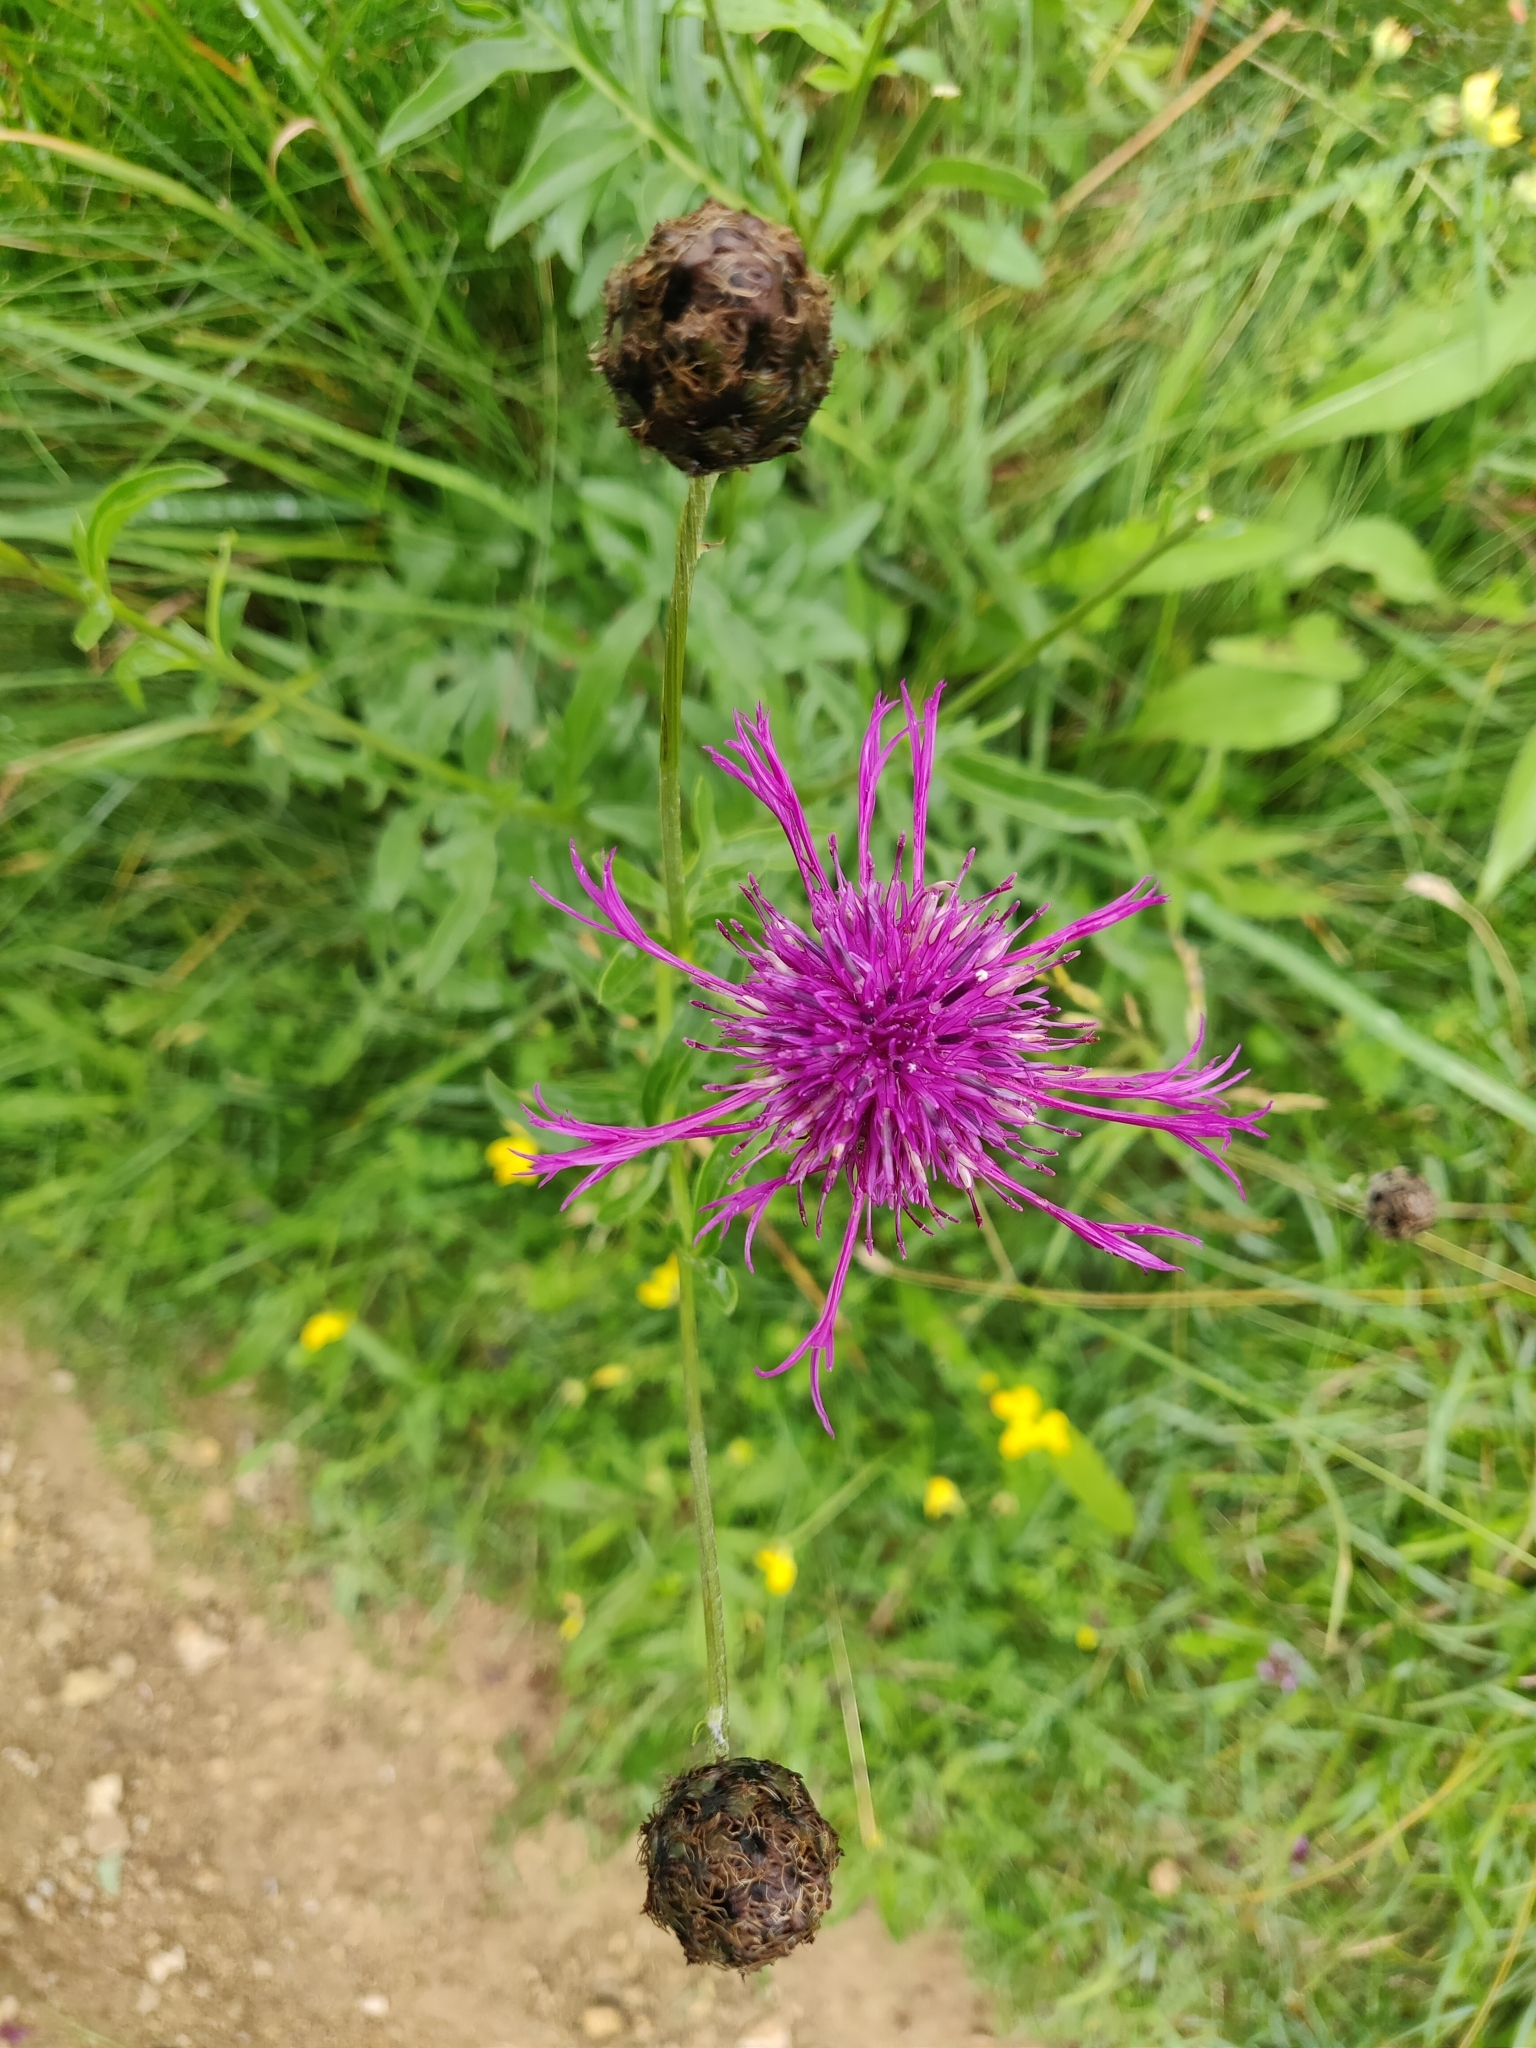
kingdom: Plantae
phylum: Tracheophyta
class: Magnoliopsida
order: Asterales
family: Asteraceae
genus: Centaurea
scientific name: Centaurea scabiosa
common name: Greater knapweed
